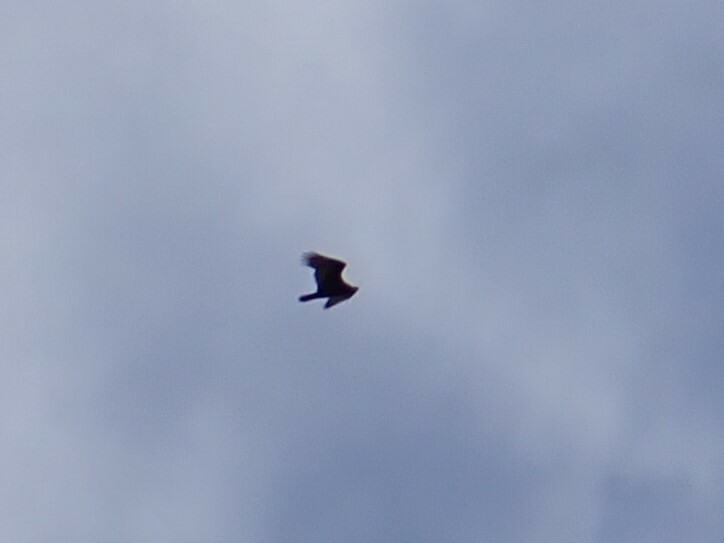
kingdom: Animalia
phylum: Chordata
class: Aves
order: Accipitriformes
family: Cathartidae
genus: Cathartes
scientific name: Cathartes aura
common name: Turkey vulture
